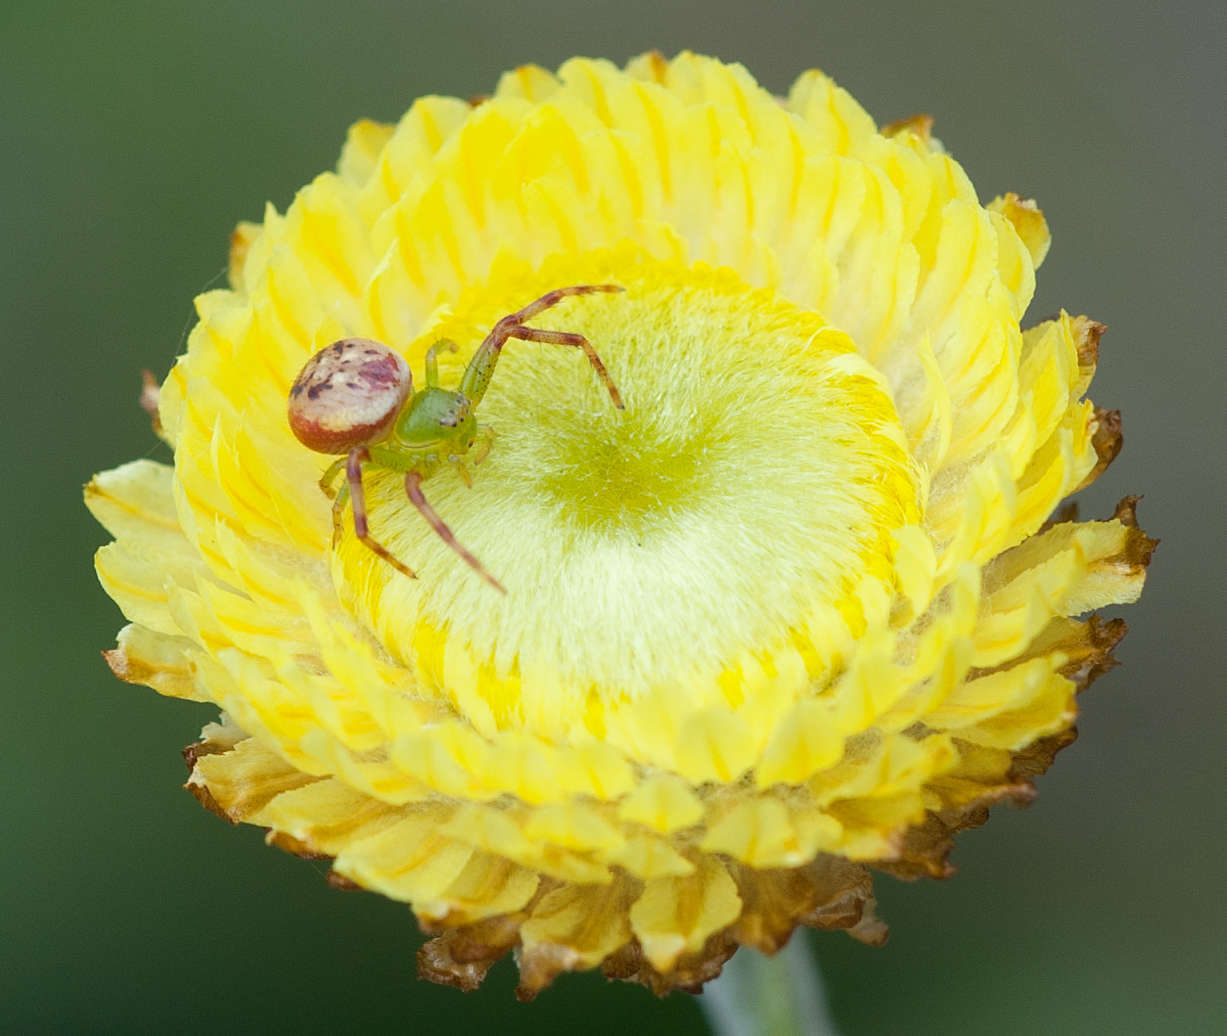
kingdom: Plantae
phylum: Tracheophyta
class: Magnoliopsida
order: Asterales
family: Asteraceae
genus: Coronidium
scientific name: Coronidium scorpioides
